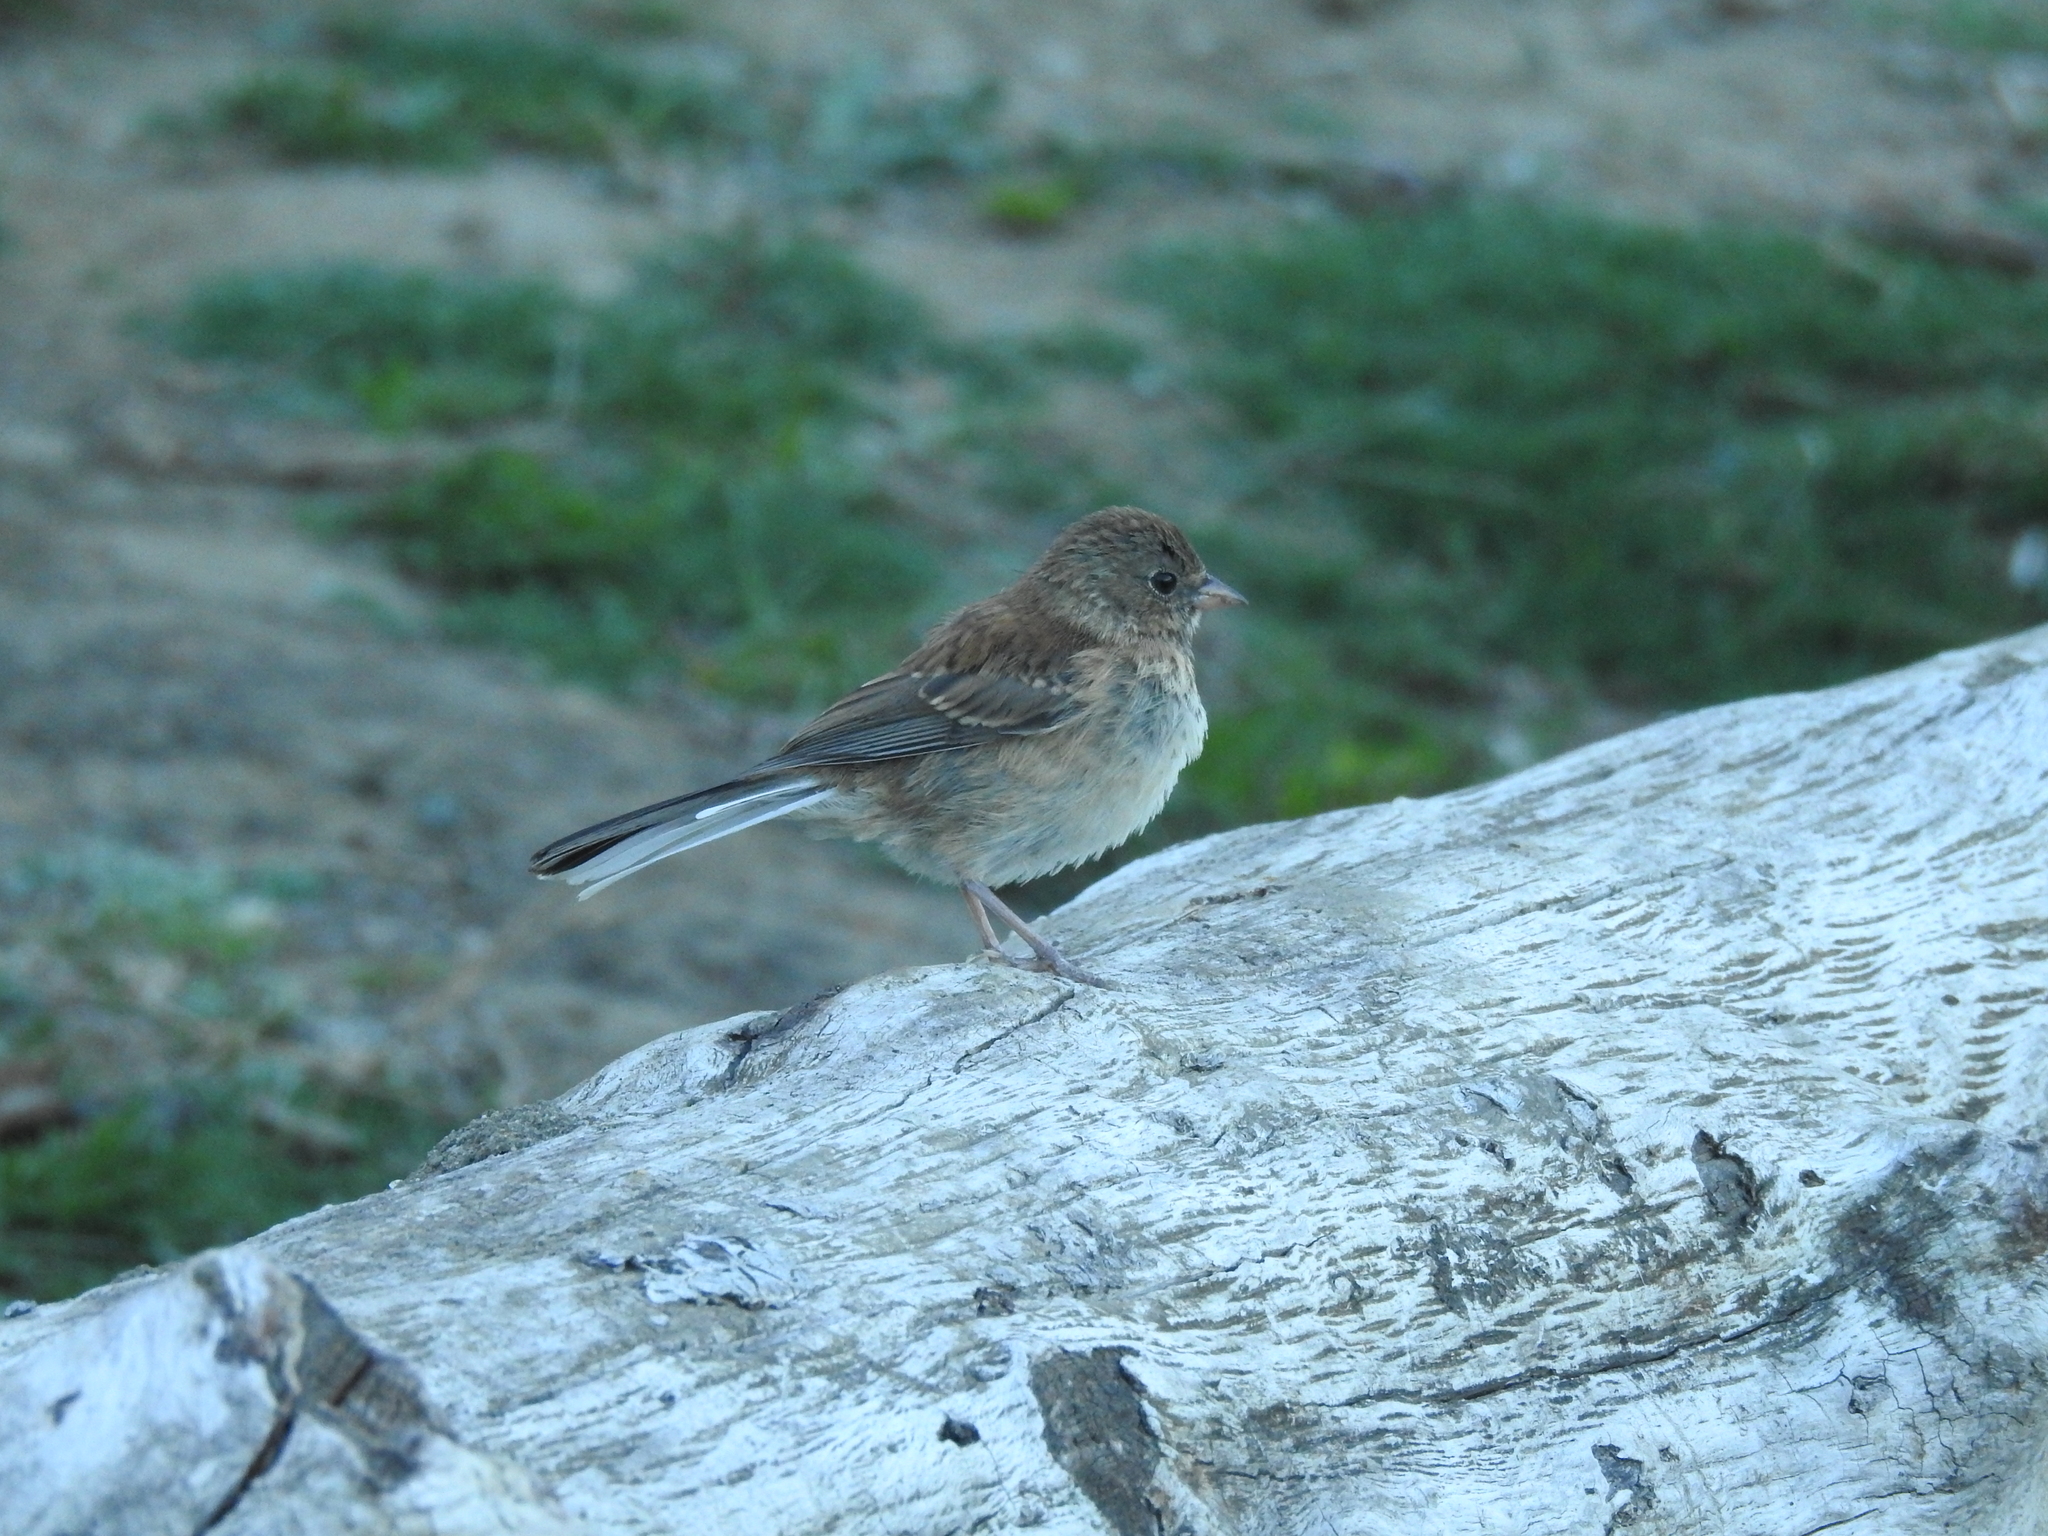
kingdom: Animalia
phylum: Chordata
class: Aves
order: Passeriformes
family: Passerellidae
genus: Junco
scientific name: Junco hyemalis
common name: Dark-eyed junco
